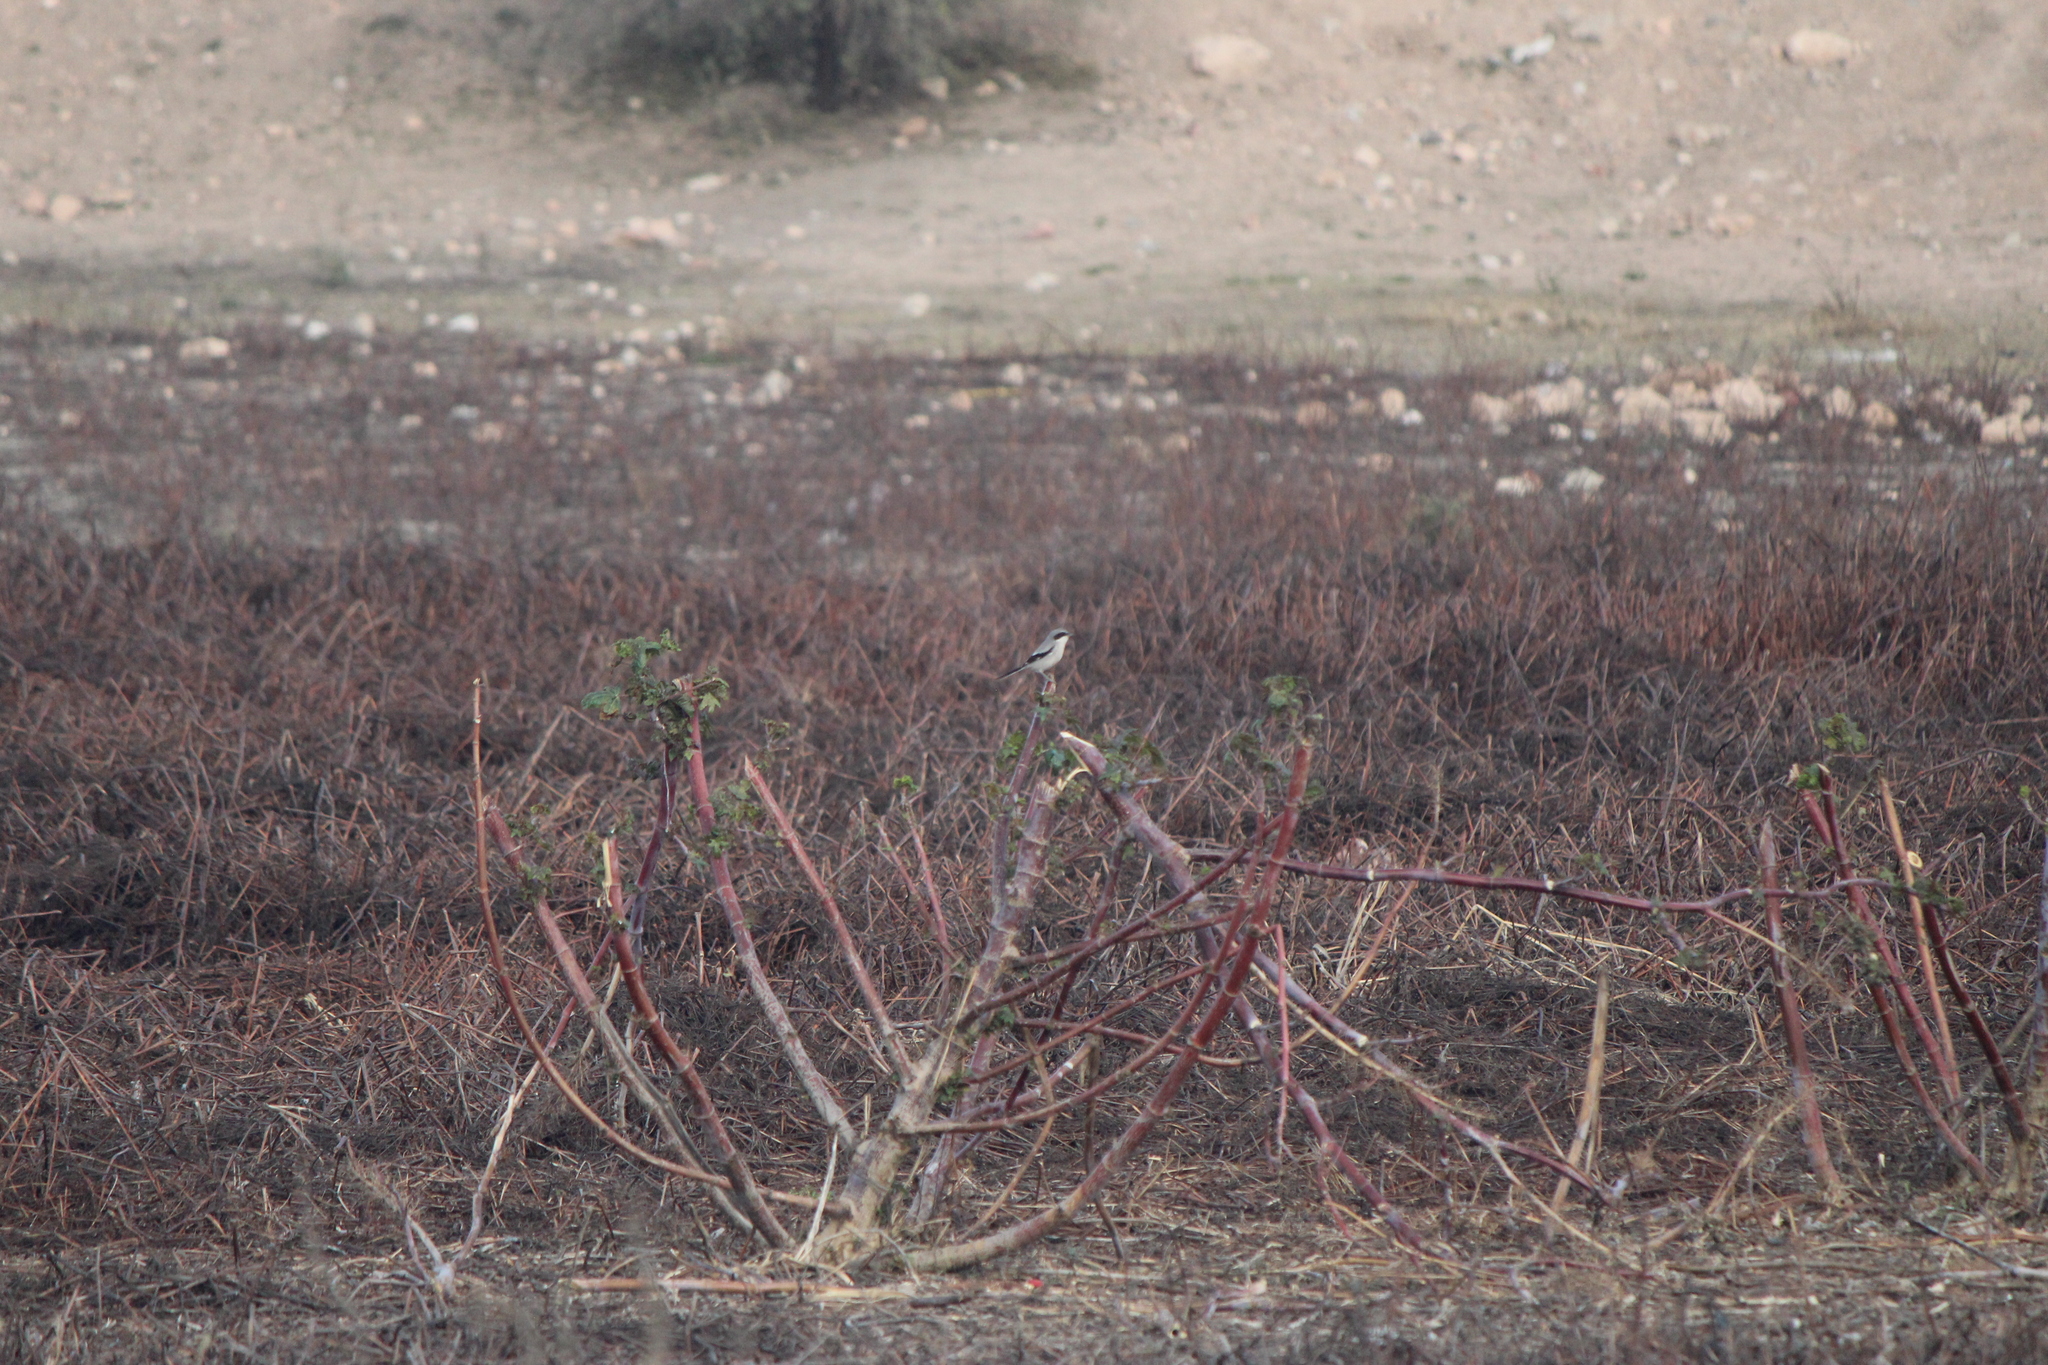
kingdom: Animalia
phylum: Chordata
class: Aves
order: Passeriformes
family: Laniidae
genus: Lanius
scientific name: Lanius ludovicianus
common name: Loggerhead shrike
